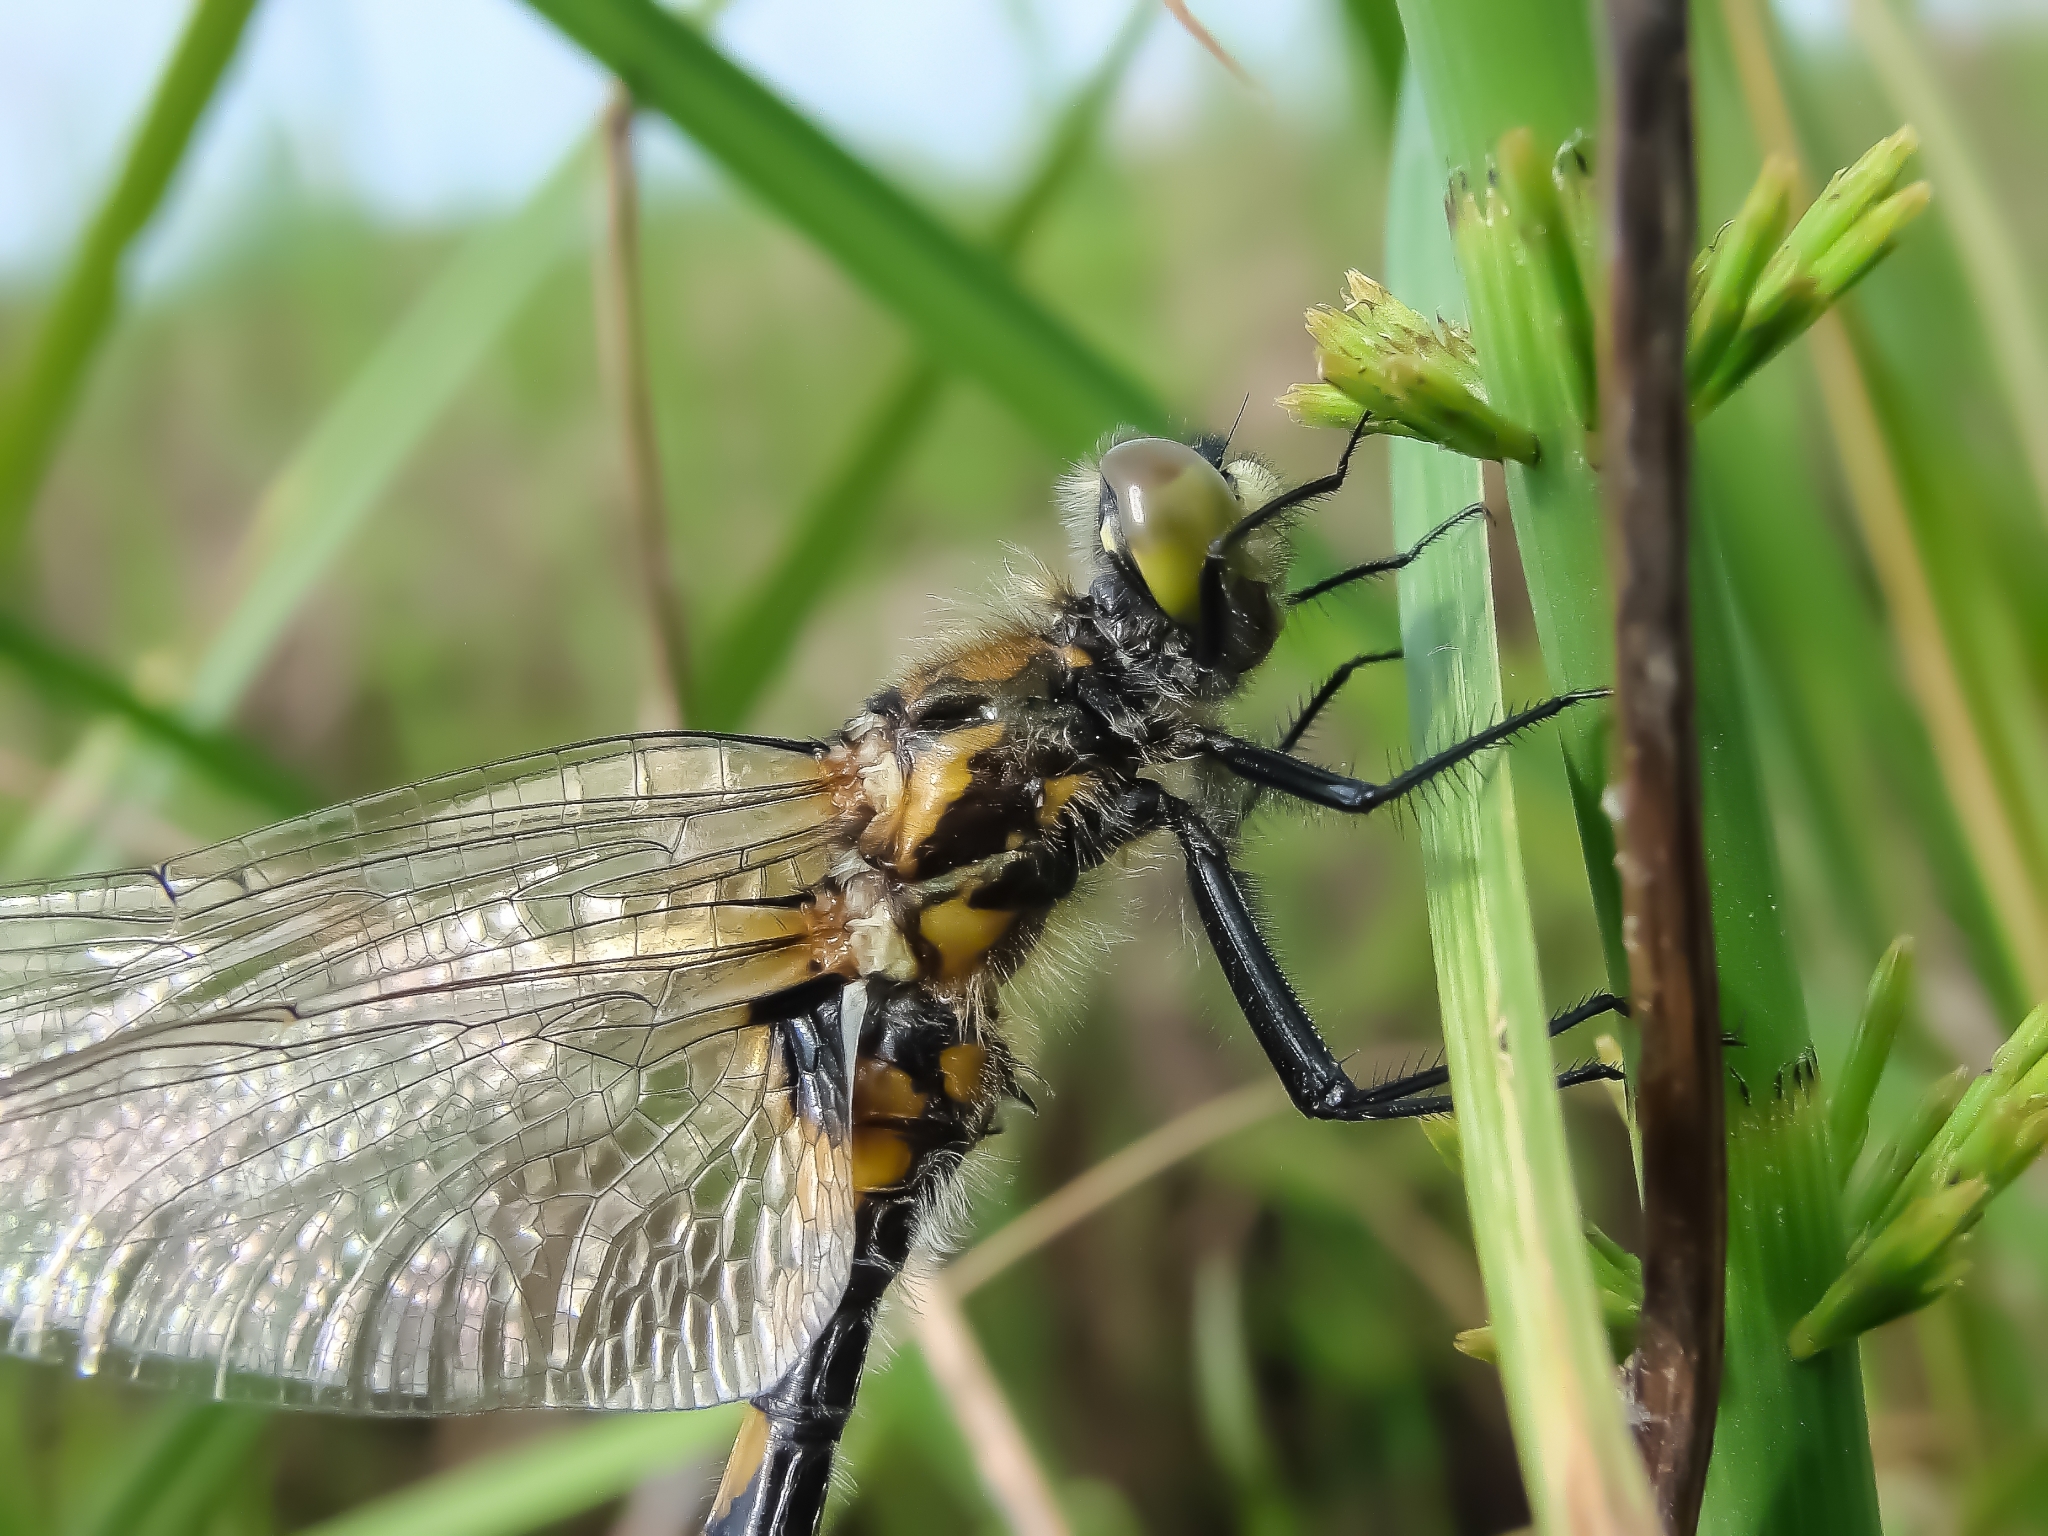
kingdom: Animalia
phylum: Arthropoda
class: Insecta
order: Odonata
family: Libellulidae
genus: Leucorrhinia
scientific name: Leucorrhinia pectoralis
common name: Yellow-spotted whiteface
